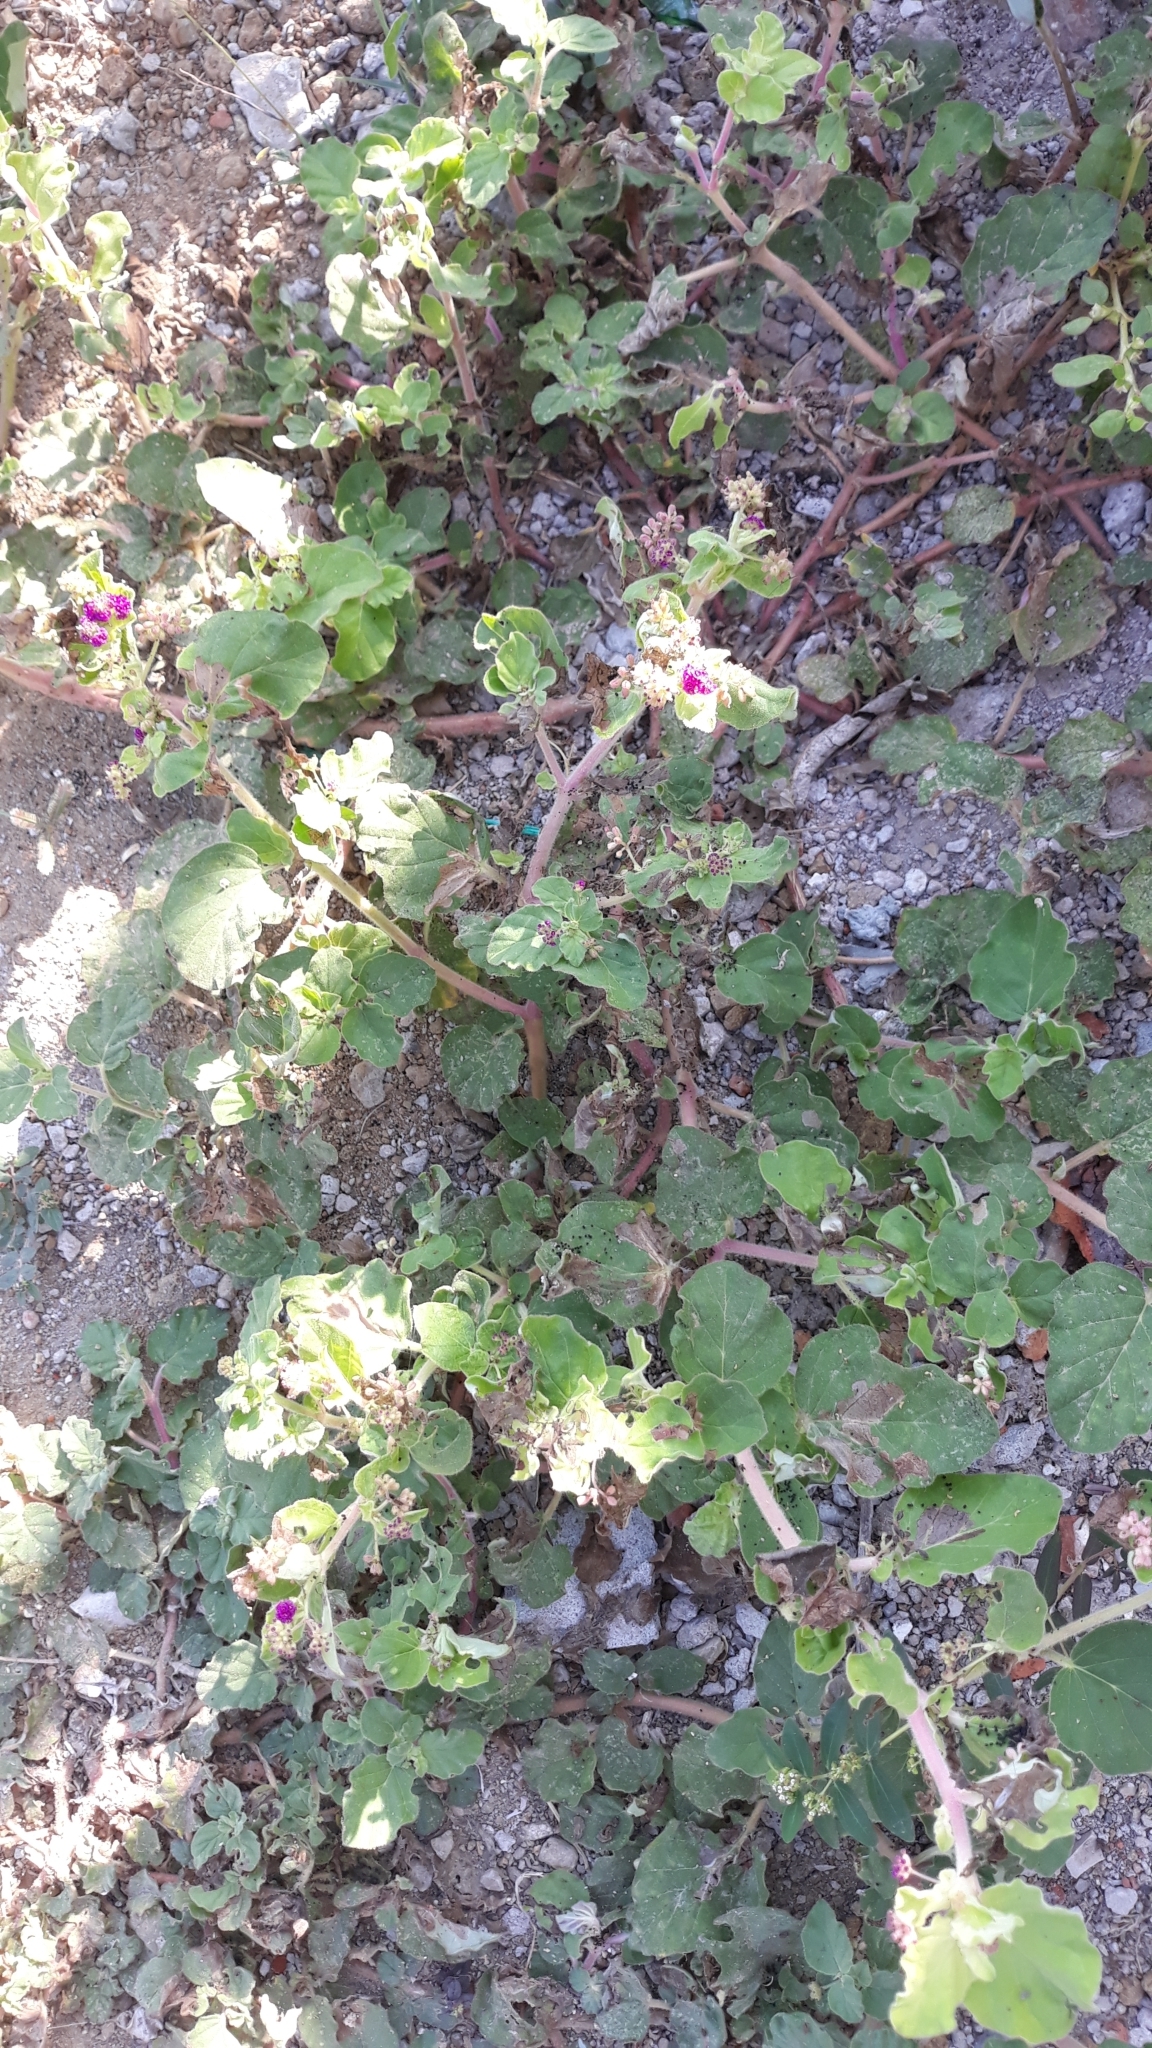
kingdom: Plantae
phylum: Tracheophyta
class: Magnoliopsida
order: Caryophyllales
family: Nyctaginaceae
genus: Boerhavia
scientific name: Boerhavia coccinea
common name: Scarlet spiderling
